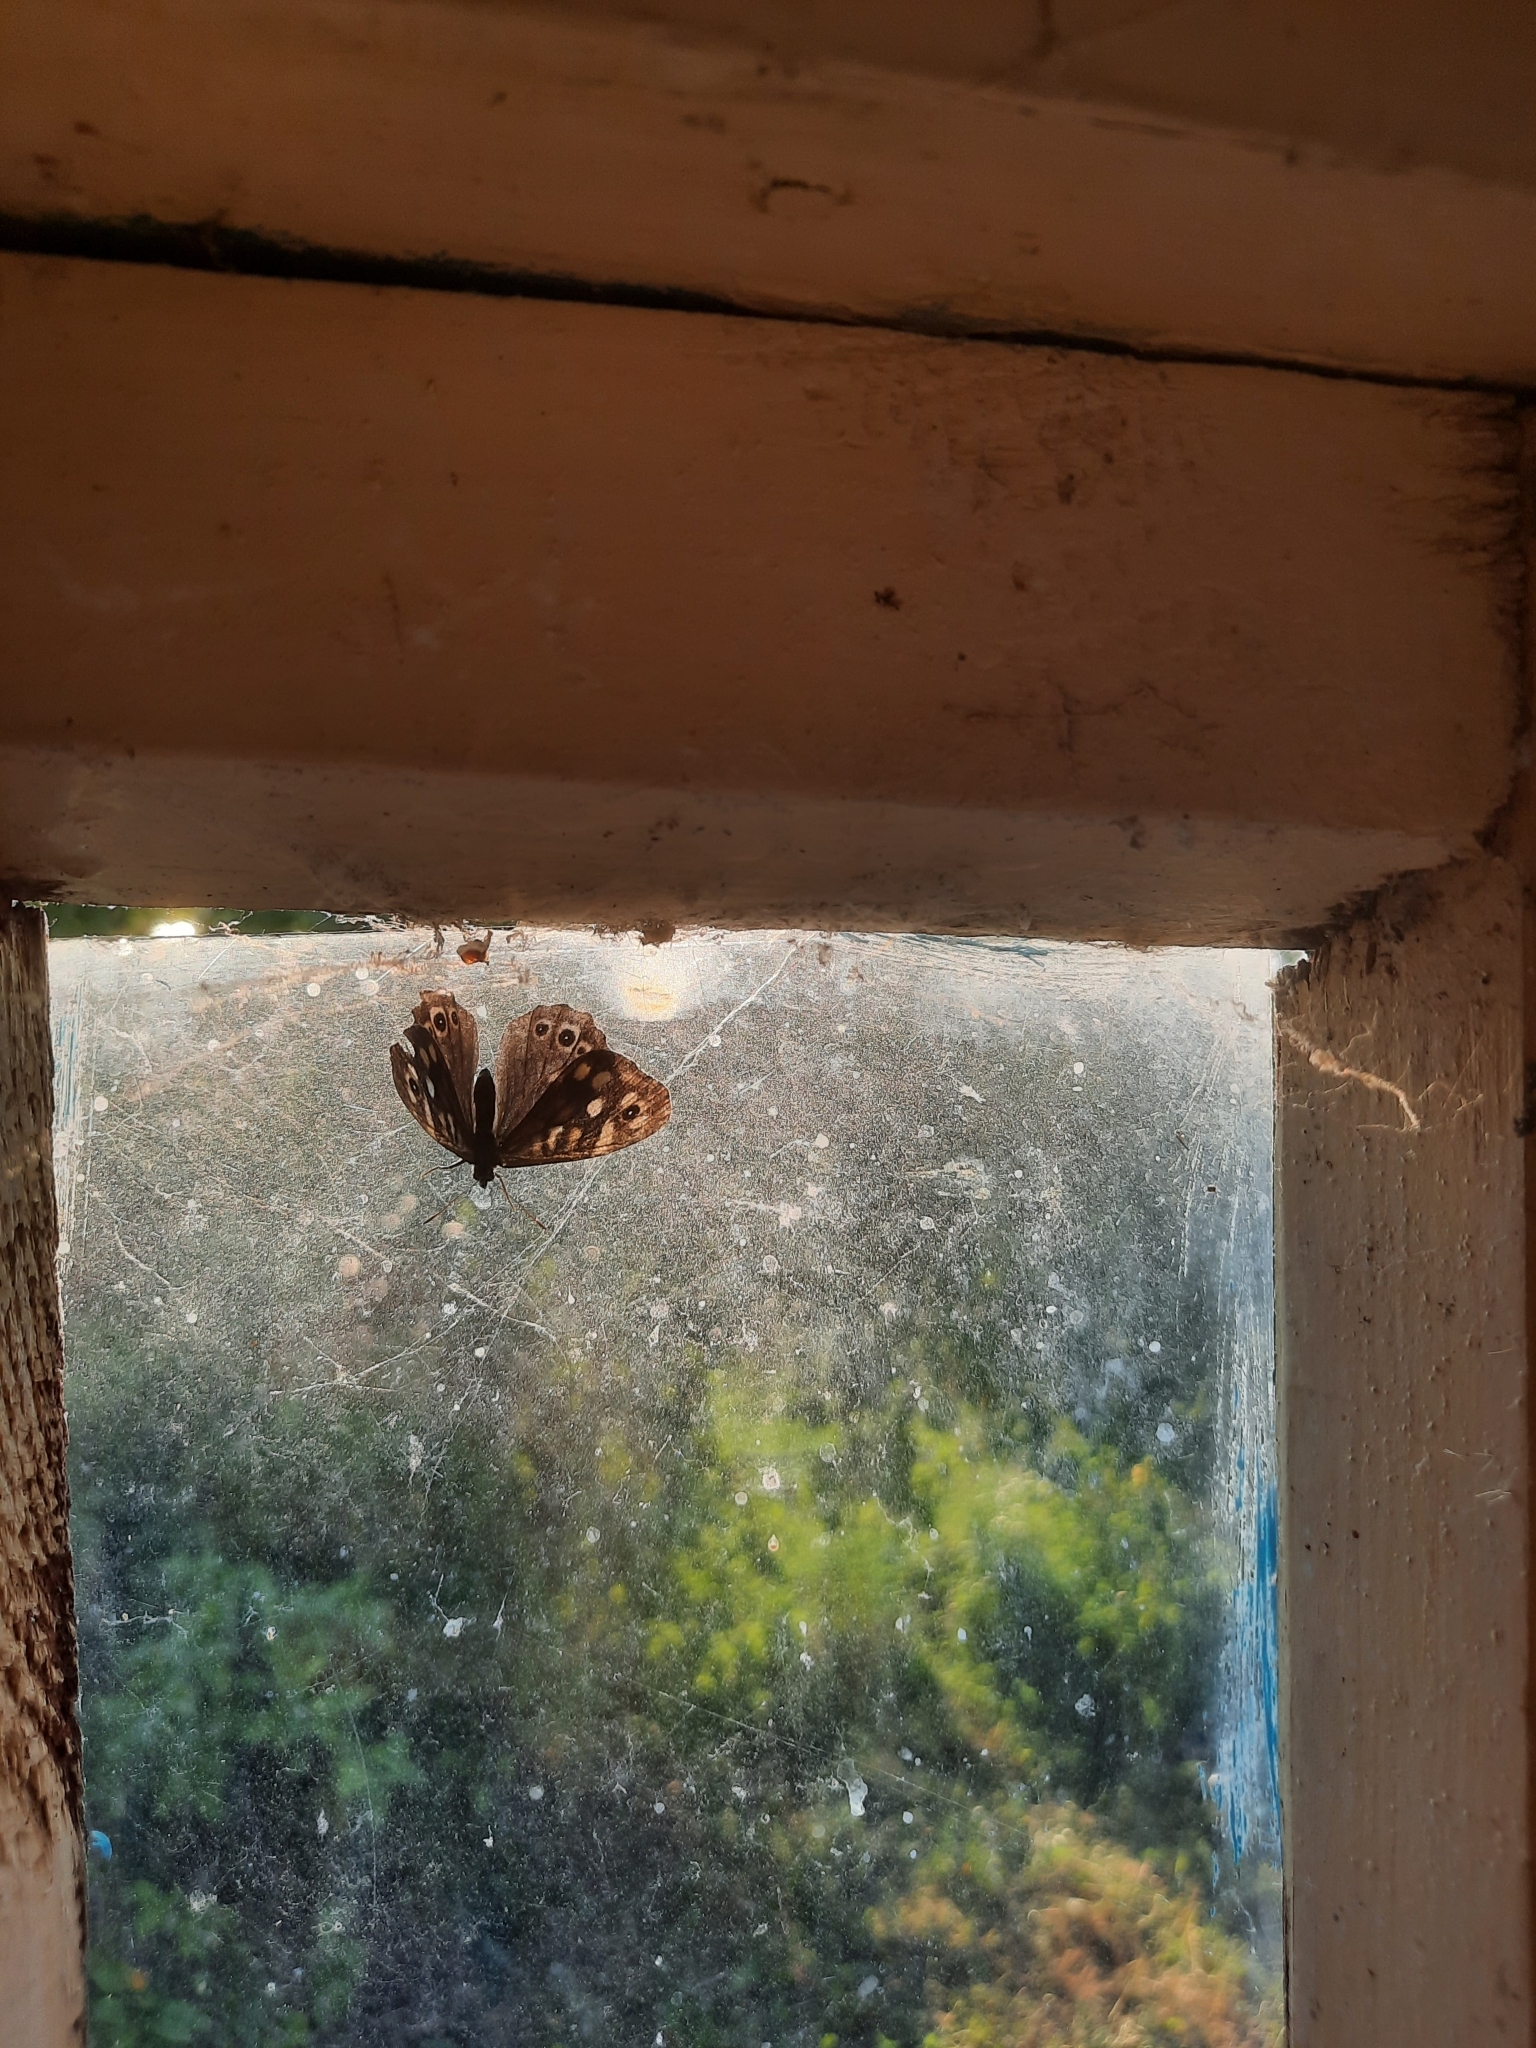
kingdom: Animalia
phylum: Arthropoda
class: Insecta
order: Lepidoptera
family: Nymphalidae
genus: Pararge
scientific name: Pararge aegeria
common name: Speckled wood
